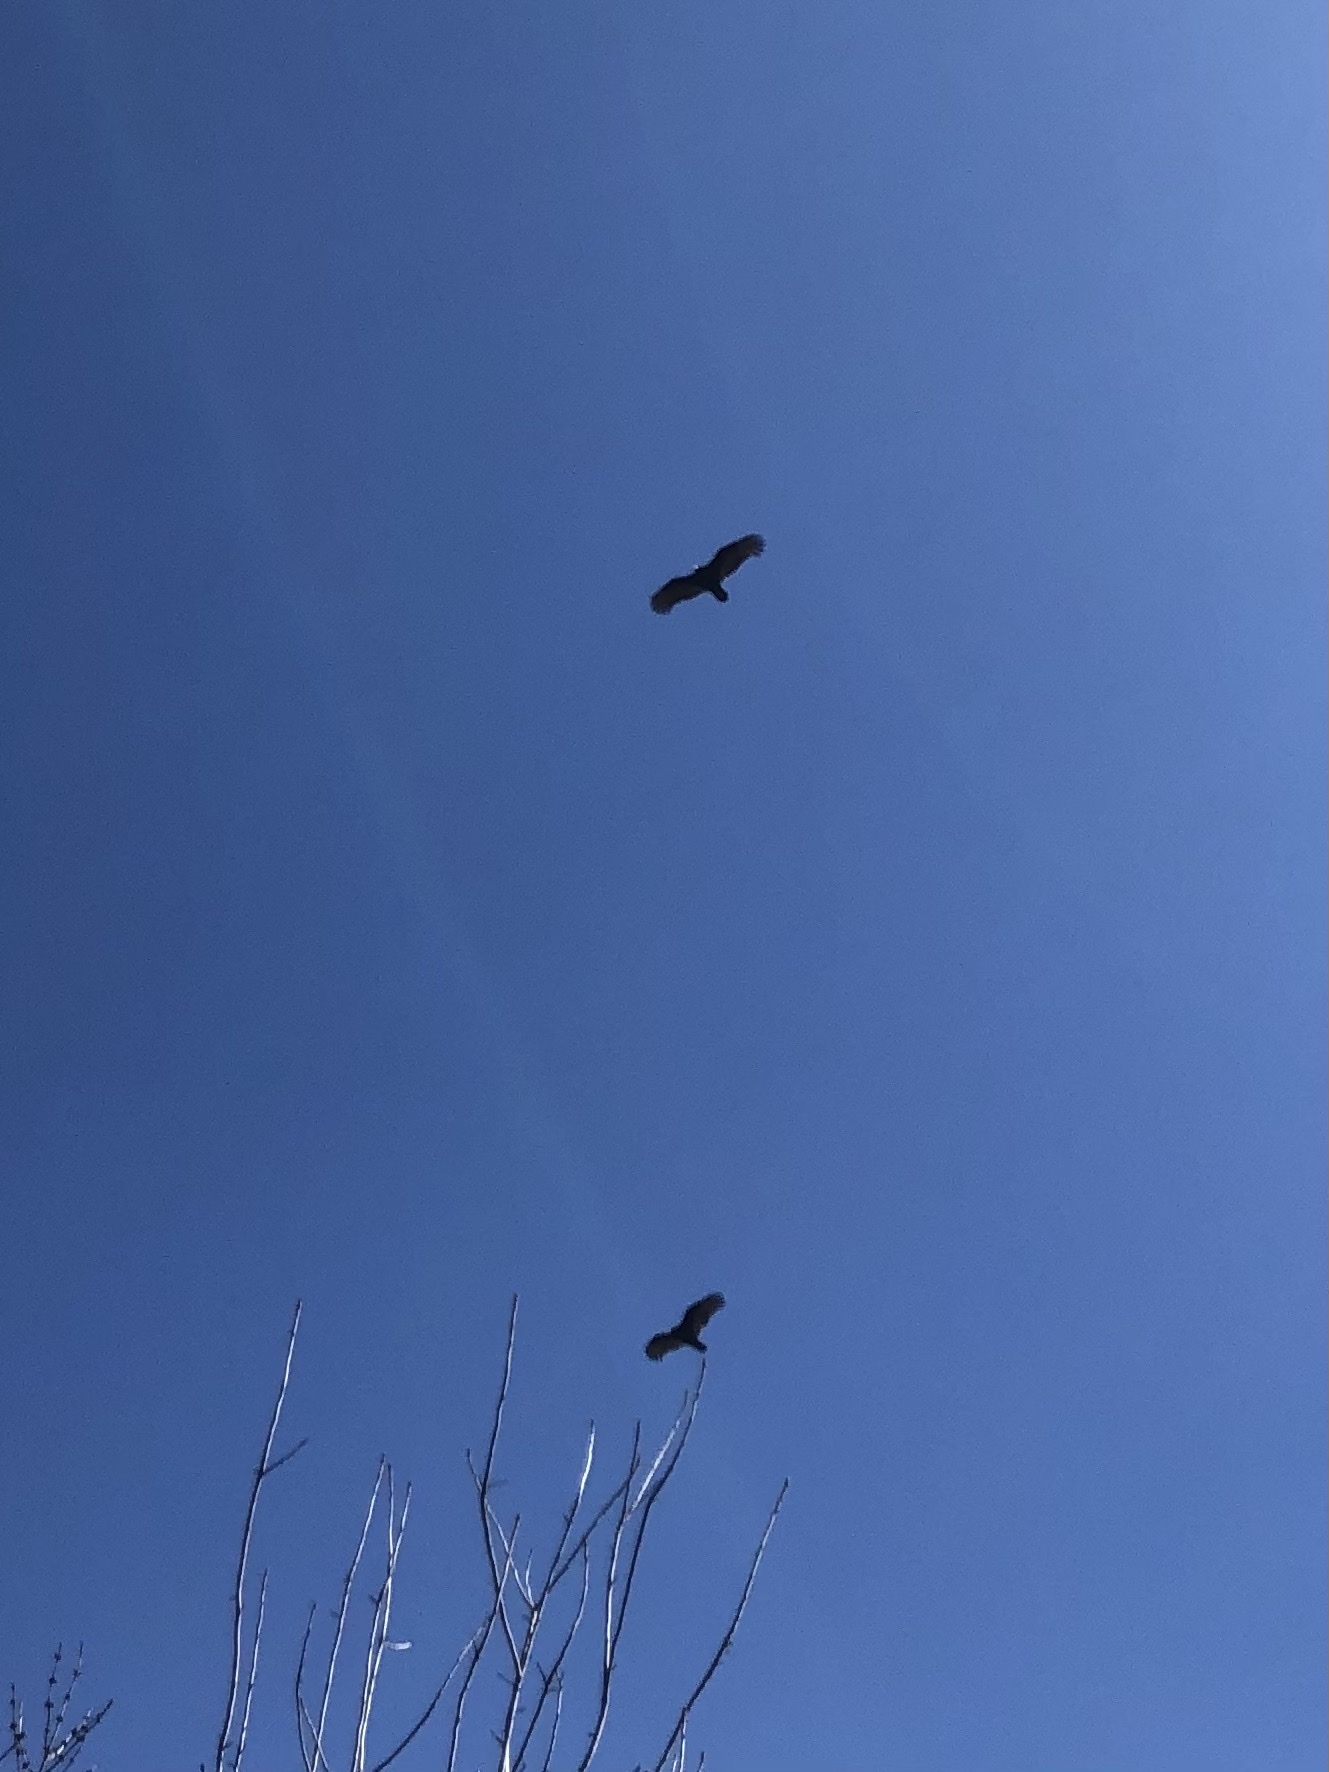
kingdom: Animalia
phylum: Chordata
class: Aves
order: Accipitriformes
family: Cathartidae
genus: Cathartes
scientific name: Cathartes aura
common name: Turkey vulture
